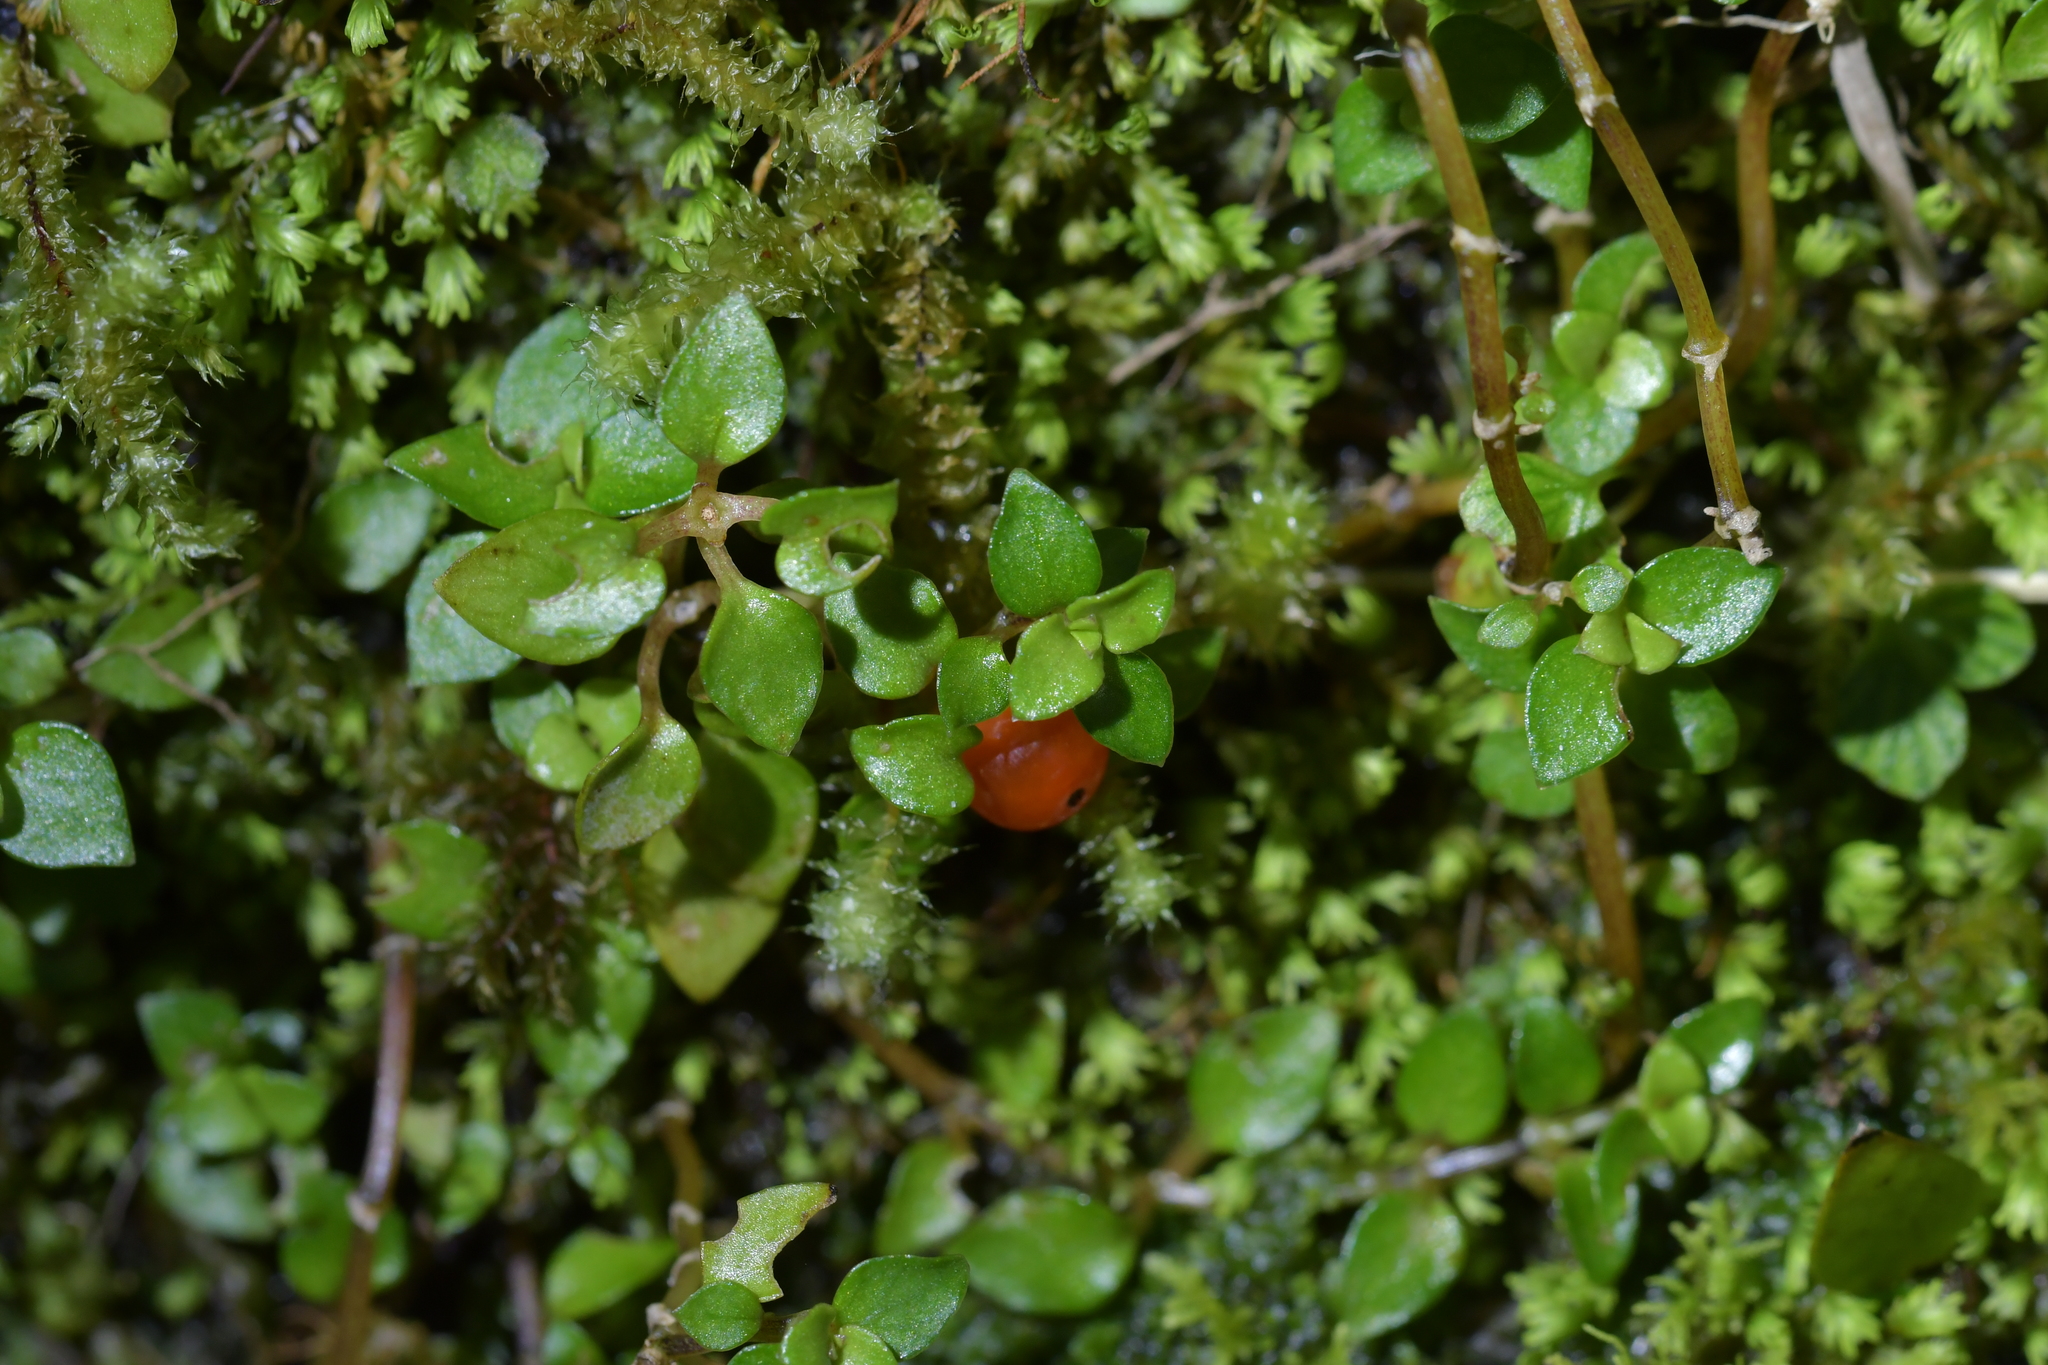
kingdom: Plantae
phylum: Tracheophyta
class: Magnoliopsida
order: Gentianales
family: Rubiaceae
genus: Nertera
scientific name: Nertera granadensis
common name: Beadplant
